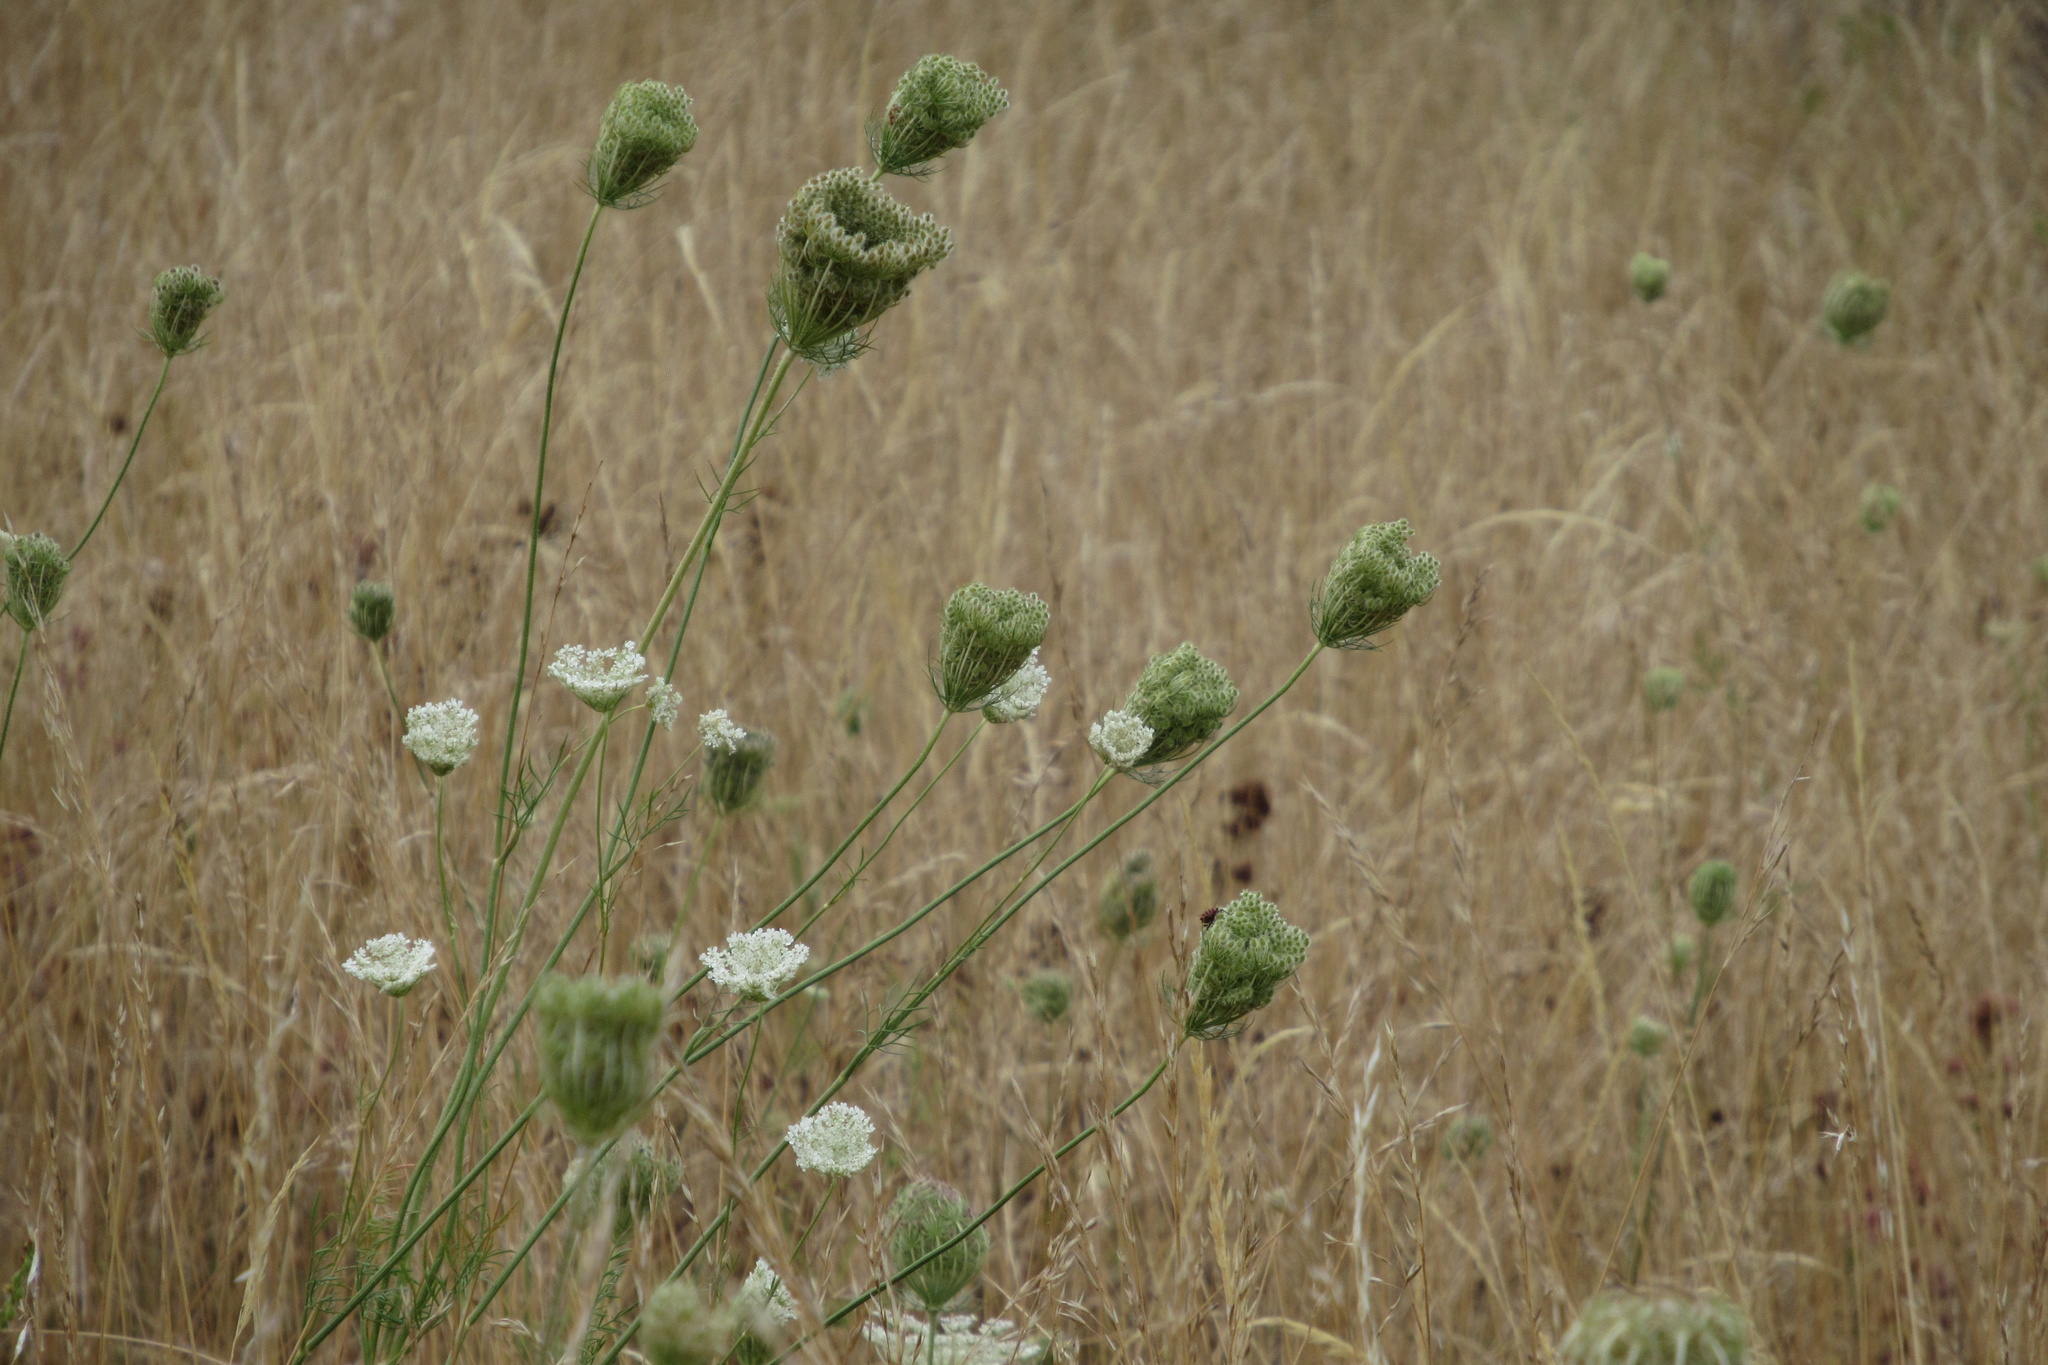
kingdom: Plantae
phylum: Tracheophyta
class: Magnoliopsida
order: Apiales
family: Apiaceae
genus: Daucus
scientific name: Daucus carota
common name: Wild carrot
